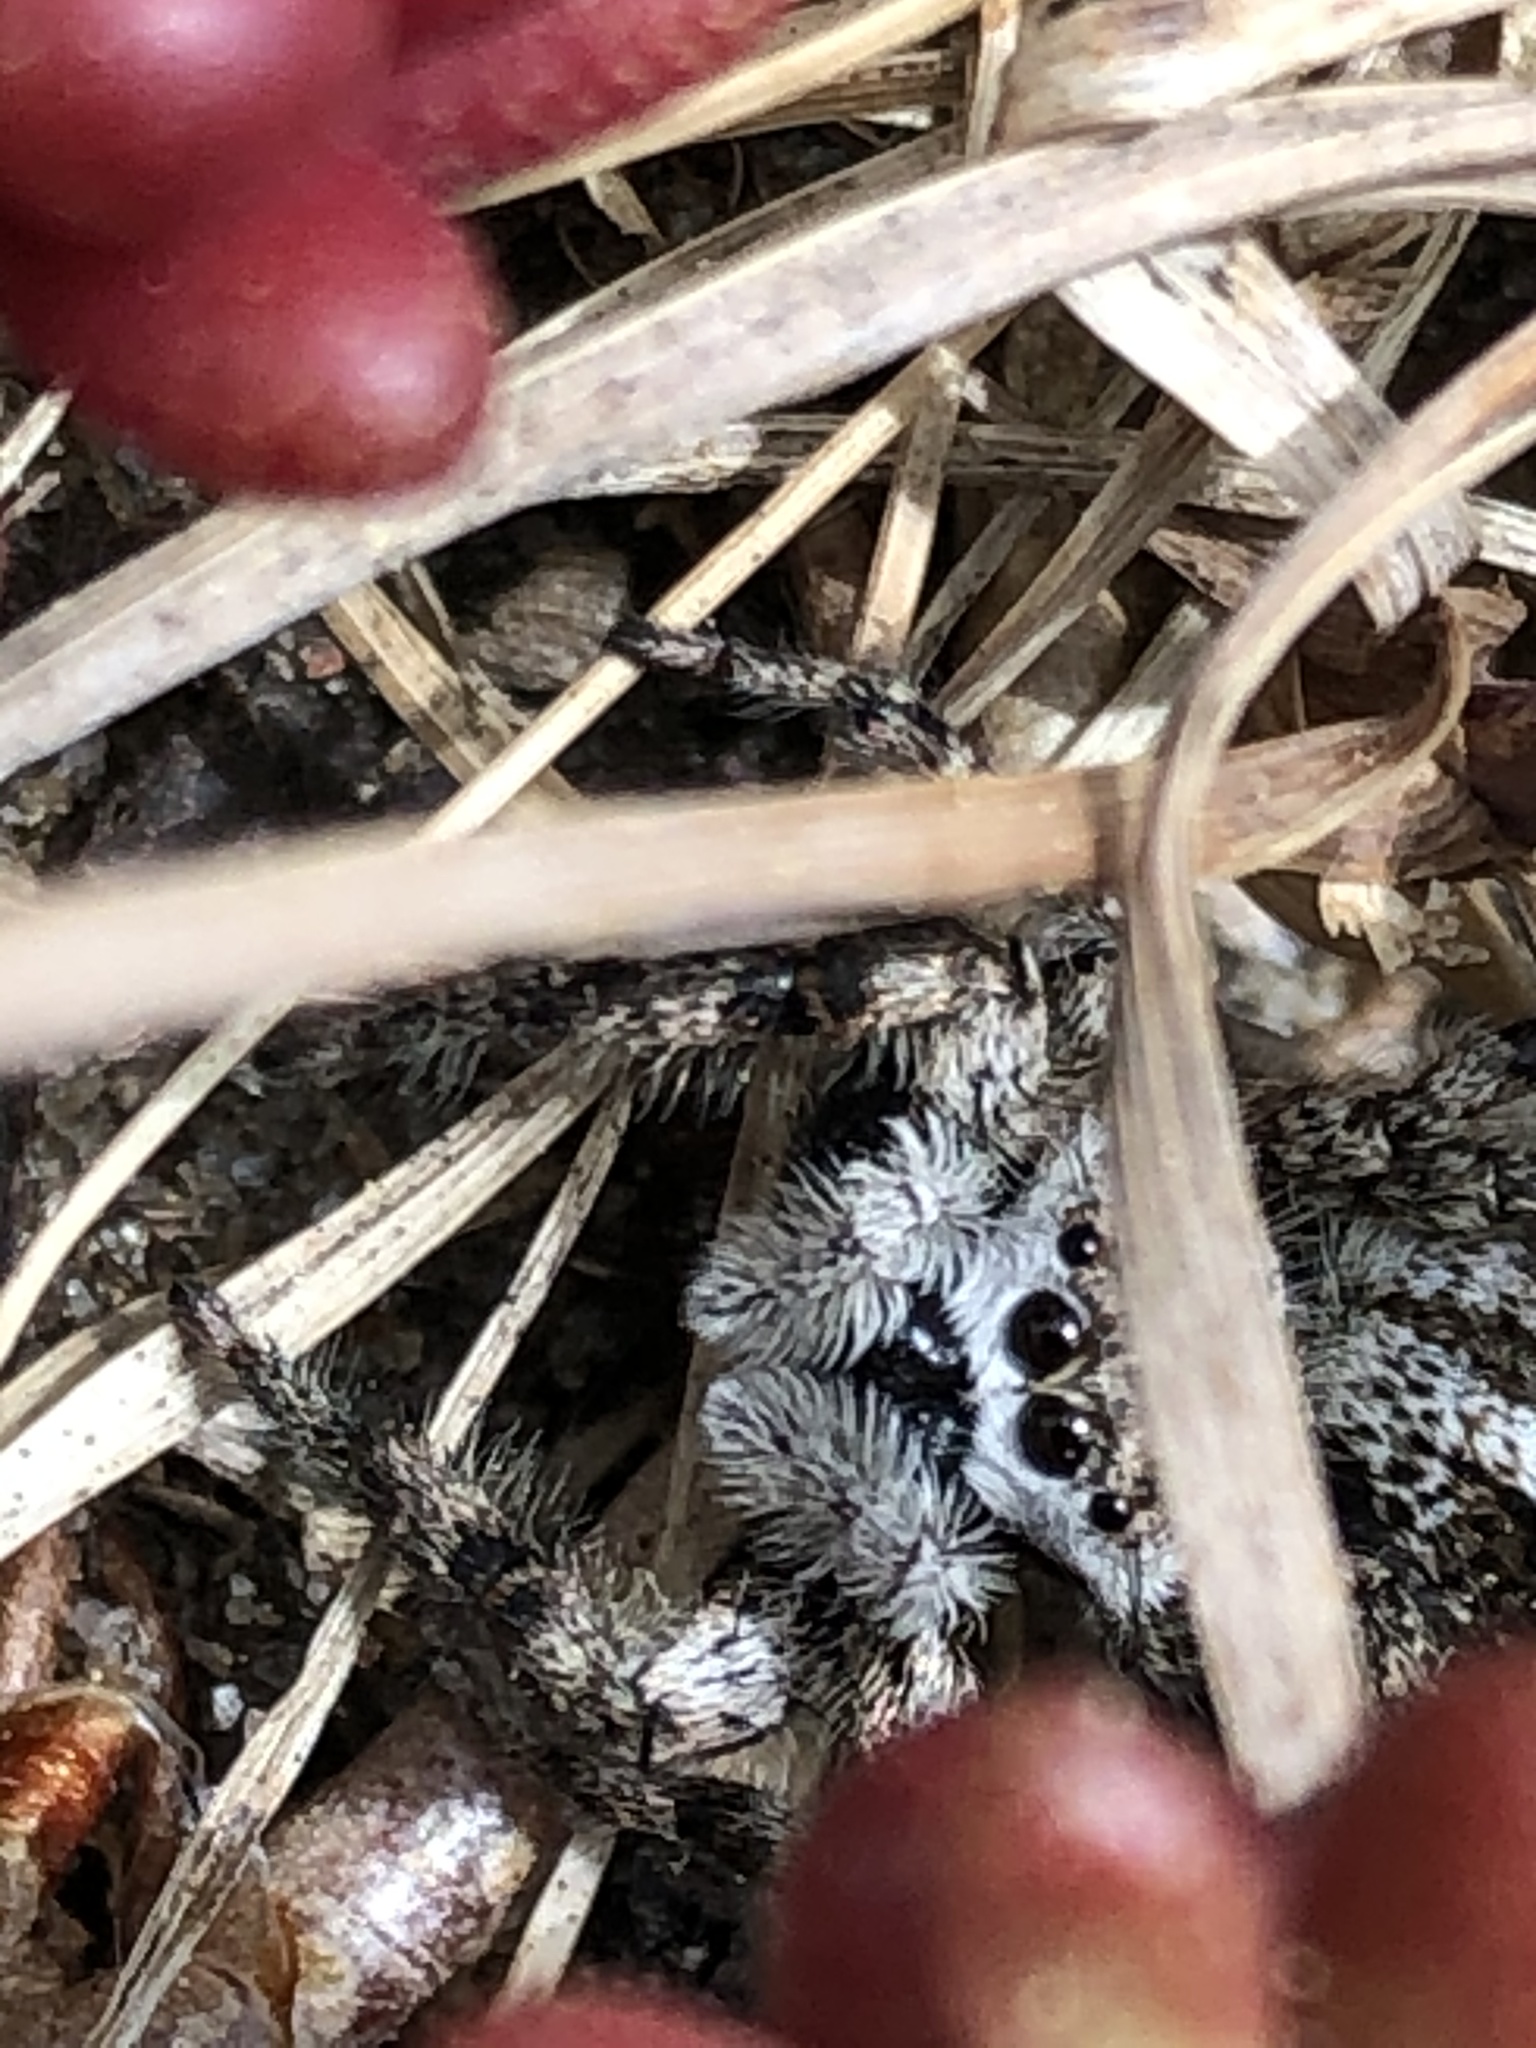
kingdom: Animalia
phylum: Arthropoda
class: Arachnida
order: Araneae
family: Salticidae
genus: Platycryptus
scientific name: Platycryptus undatus
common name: Tan jumping spider
